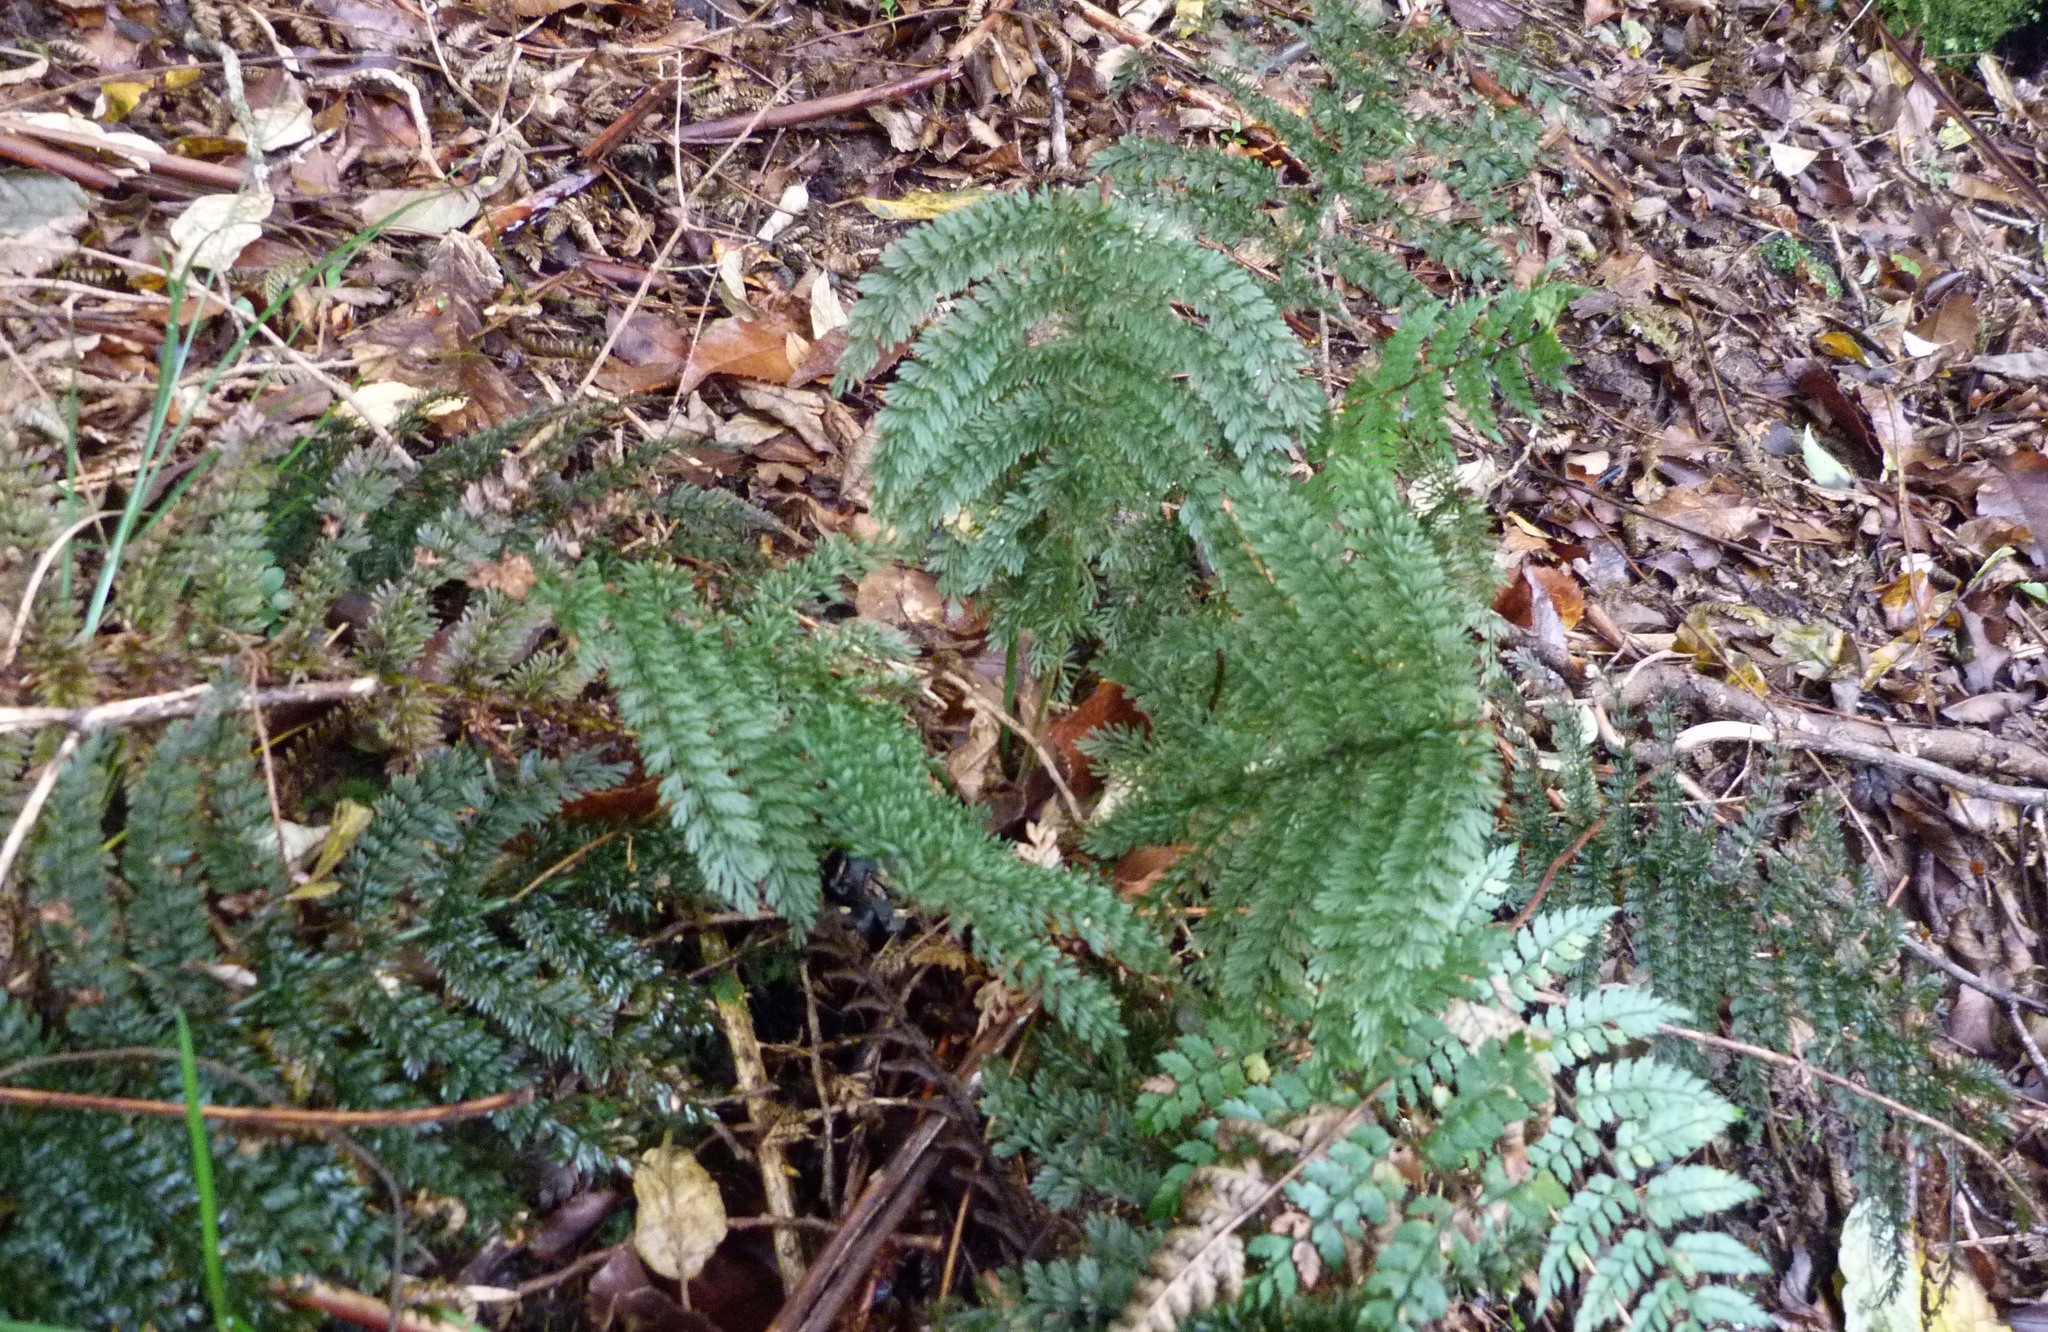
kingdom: Plantae
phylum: Tracheophyta
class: Polypodiopsida
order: Osmundales
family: Osmundaceae
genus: Leptopteris
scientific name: Leptopteris superba
